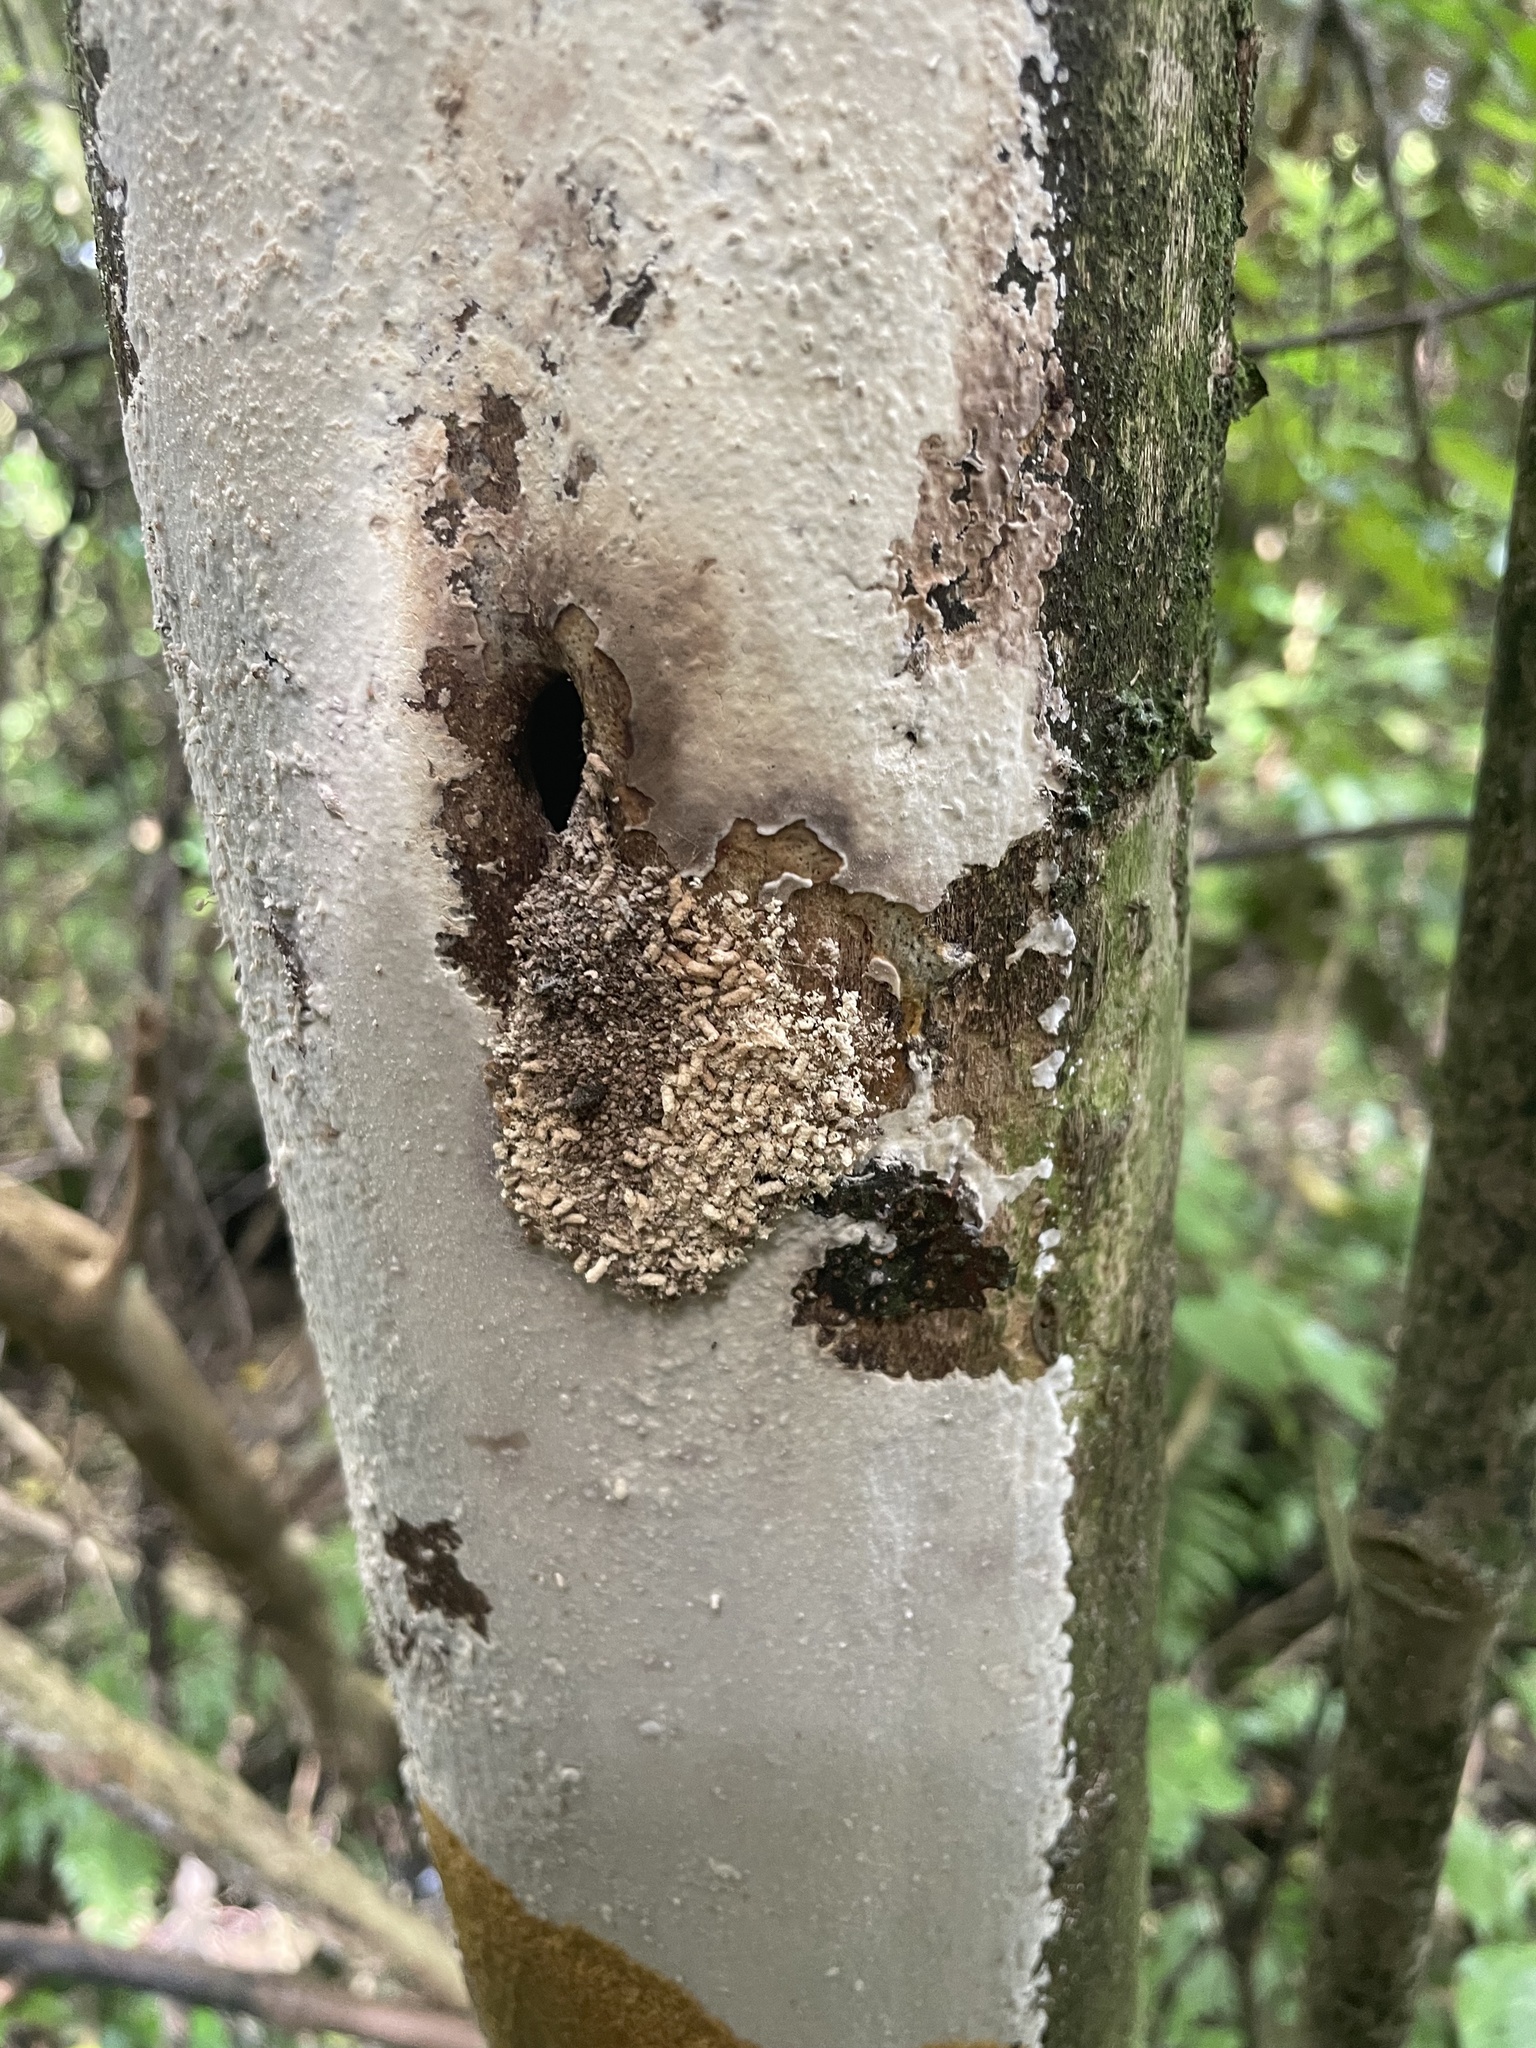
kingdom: Animalia
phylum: Arthropoda
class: Insecta
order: Lepidoptera
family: Hepialidae
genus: Aenetus
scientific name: Aenetus virescens
